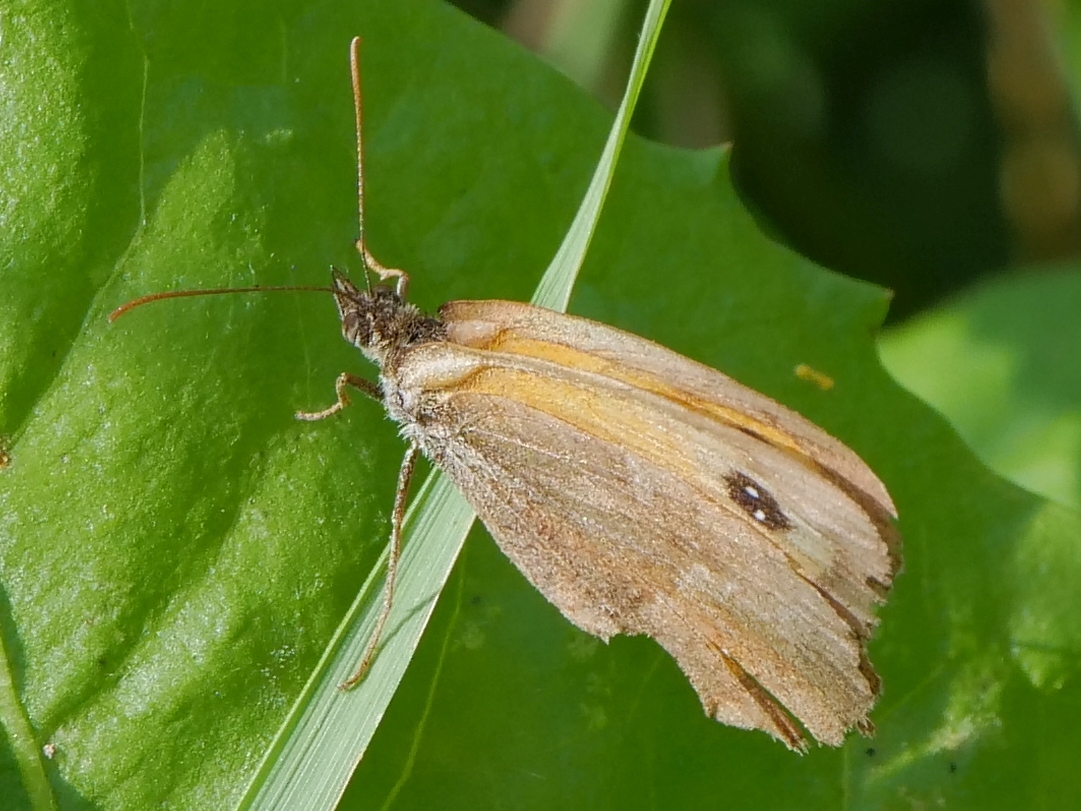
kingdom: Animalia
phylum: Arthropoda
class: Insecta
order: Lepidoptera
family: Nymphalidae
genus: Pyronia
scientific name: Pyronia tithonus
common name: Gatekeeper
